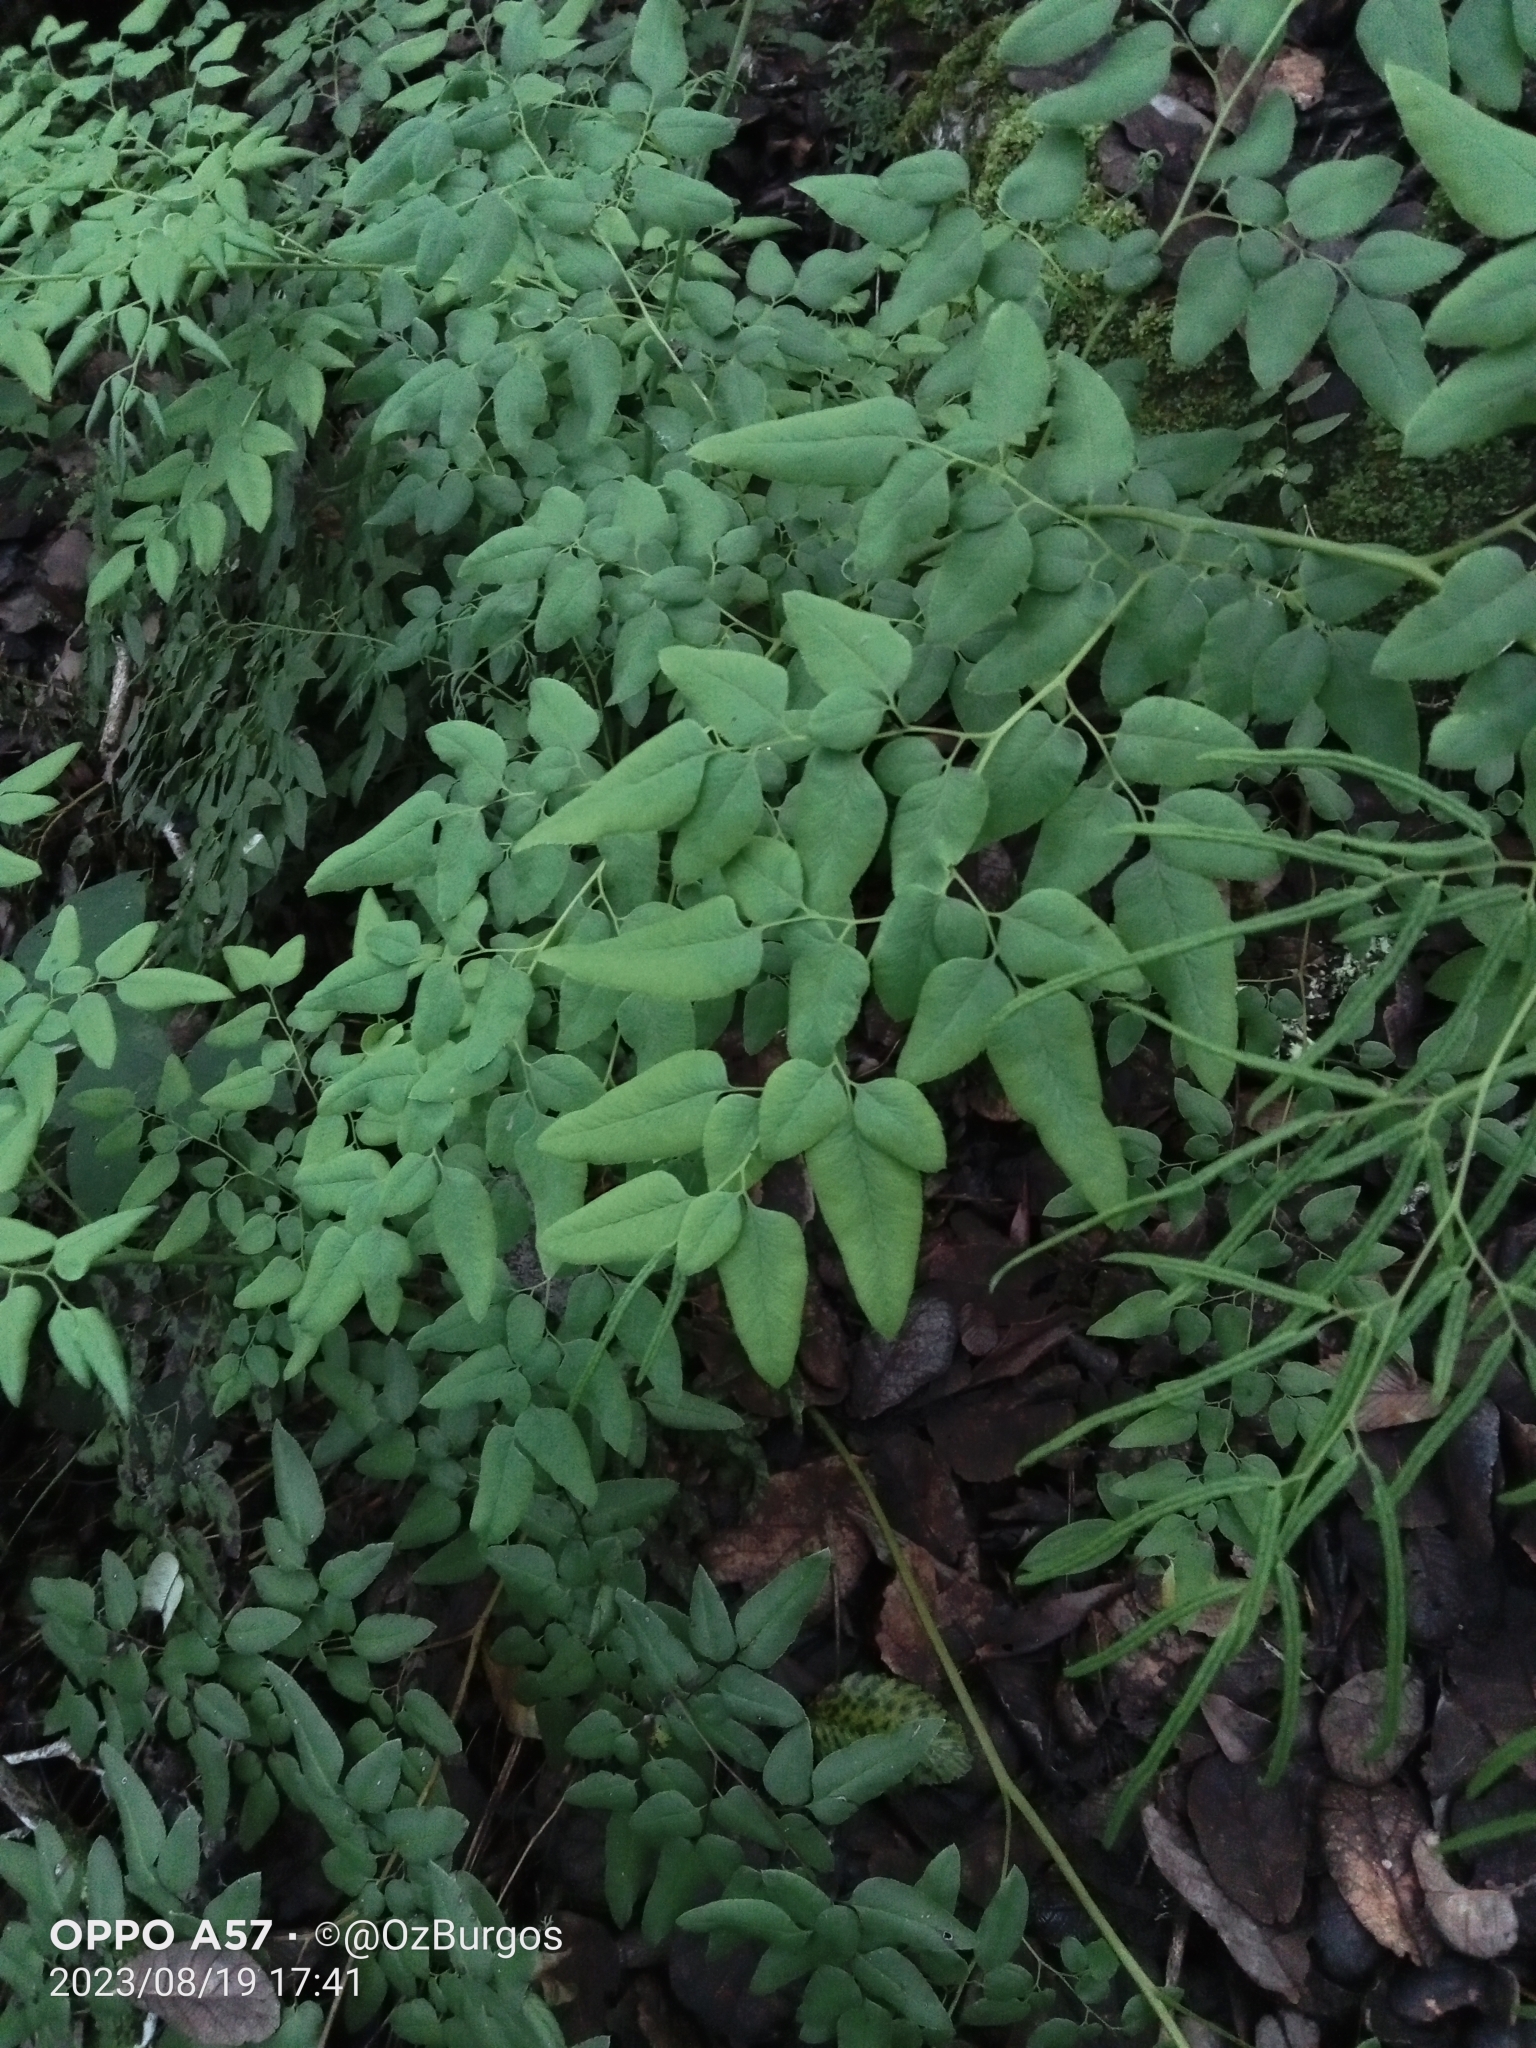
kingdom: Plantae
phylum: Tracheophyta
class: Polypodiopsida
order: Polypodiales
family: Pteridaceae
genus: Llavea
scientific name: Llavea cordifolia
